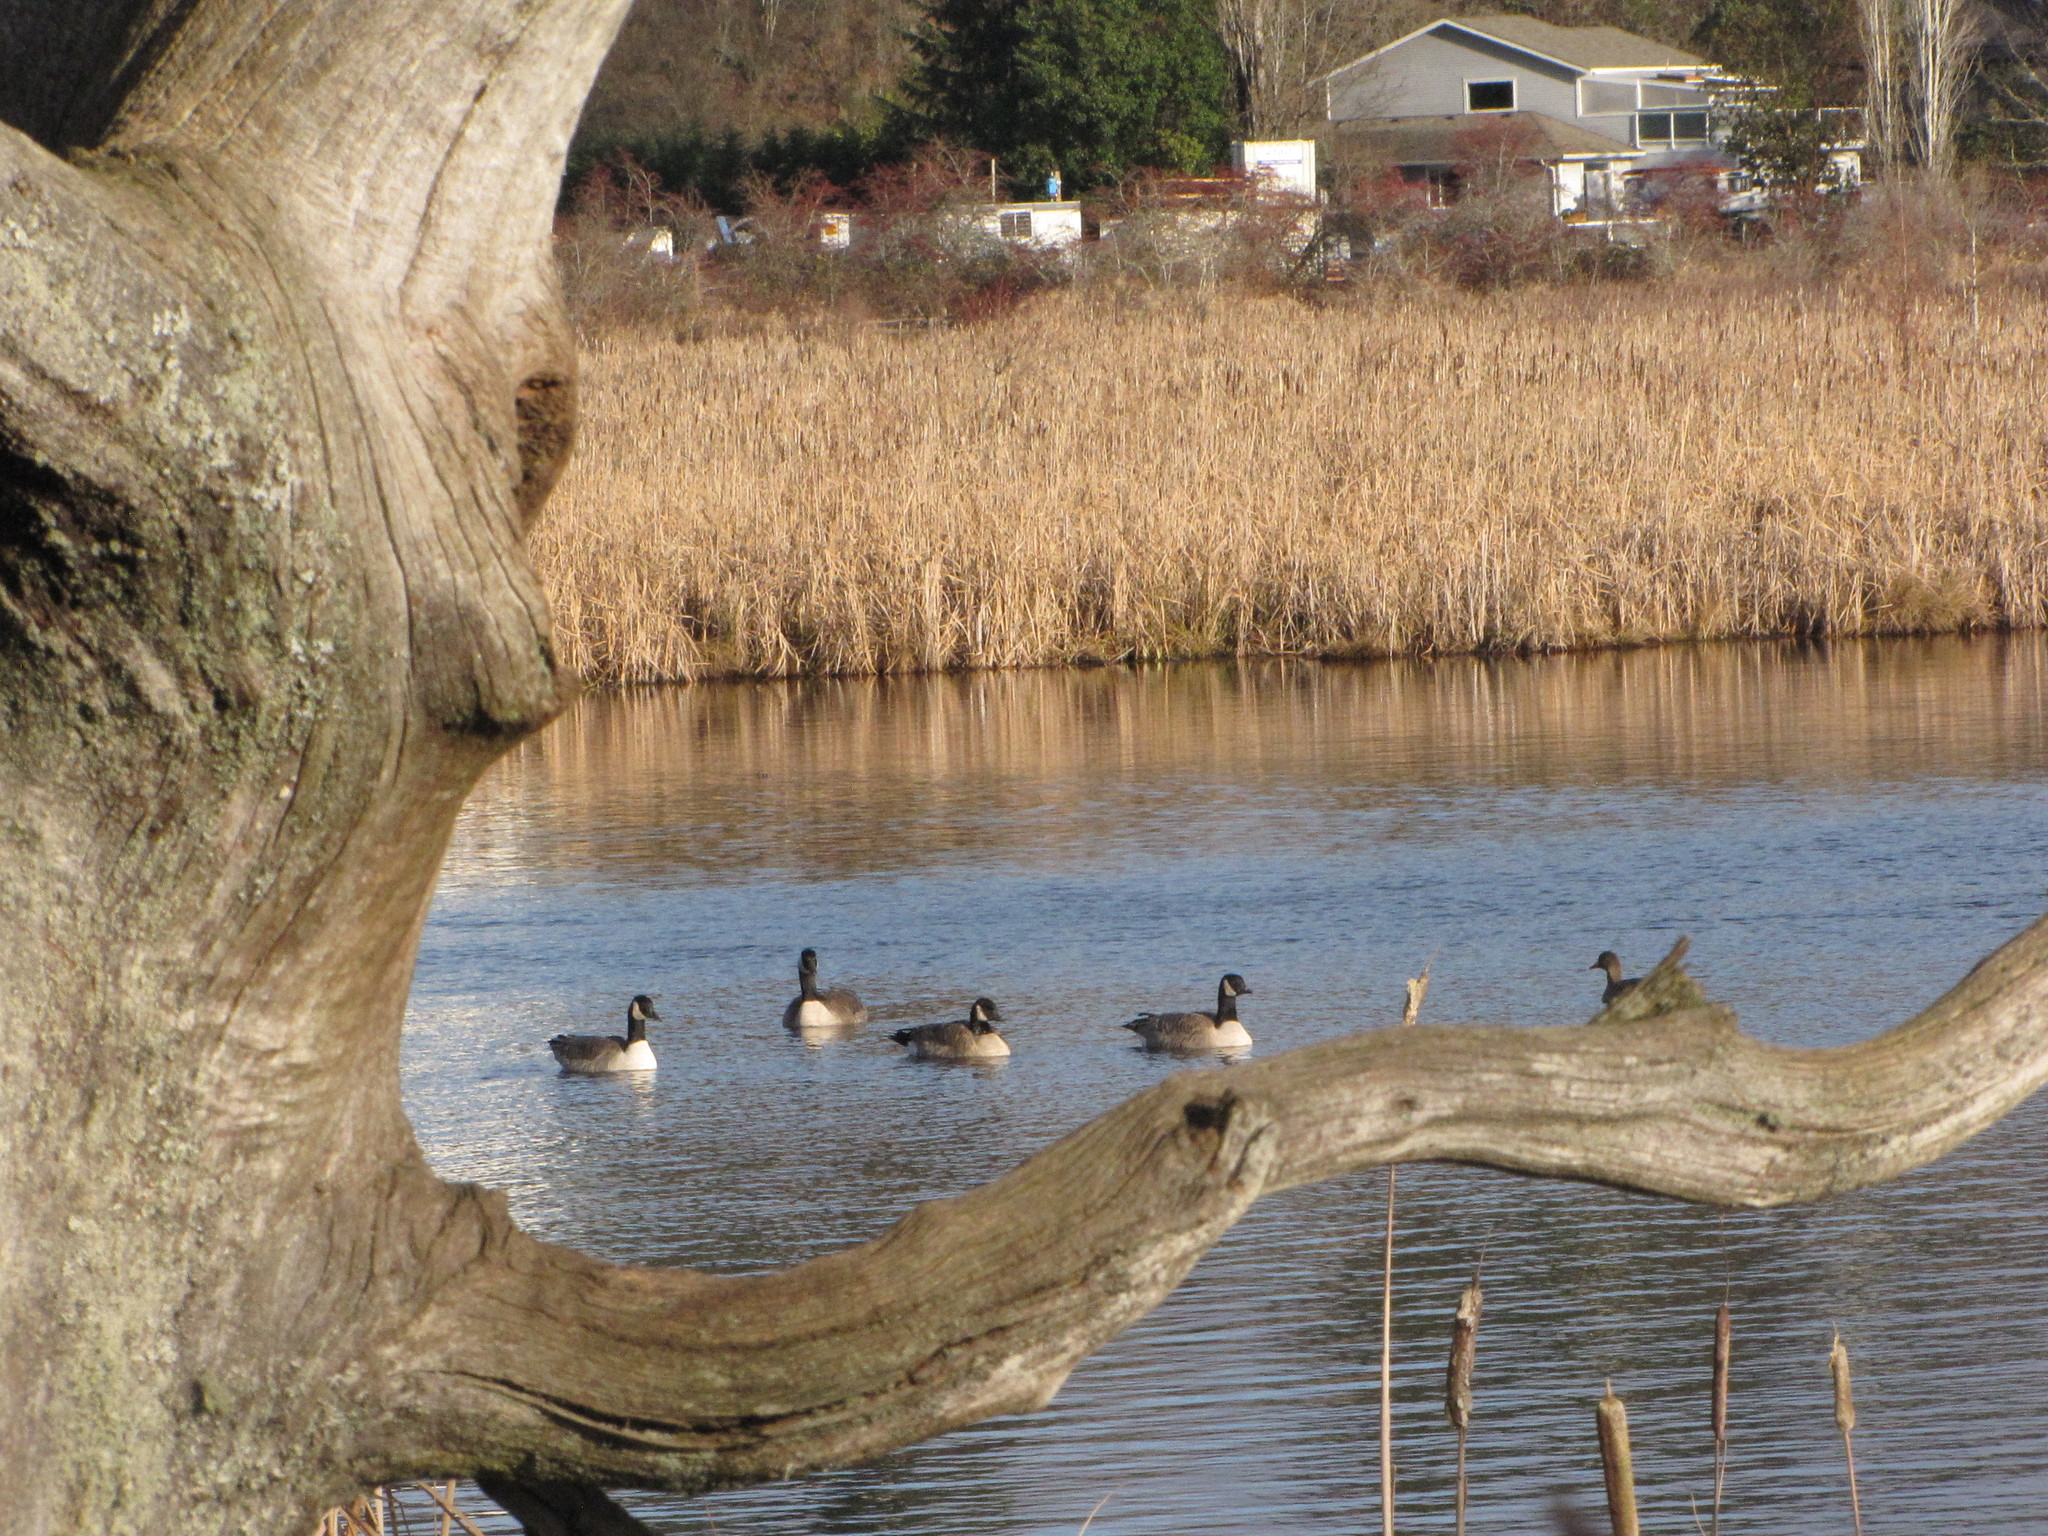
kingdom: Animalia
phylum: Chordata
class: Aves
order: Anseriformes
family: Anatidae
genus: Branta
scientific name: Branta canadensis
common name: Canada goose
